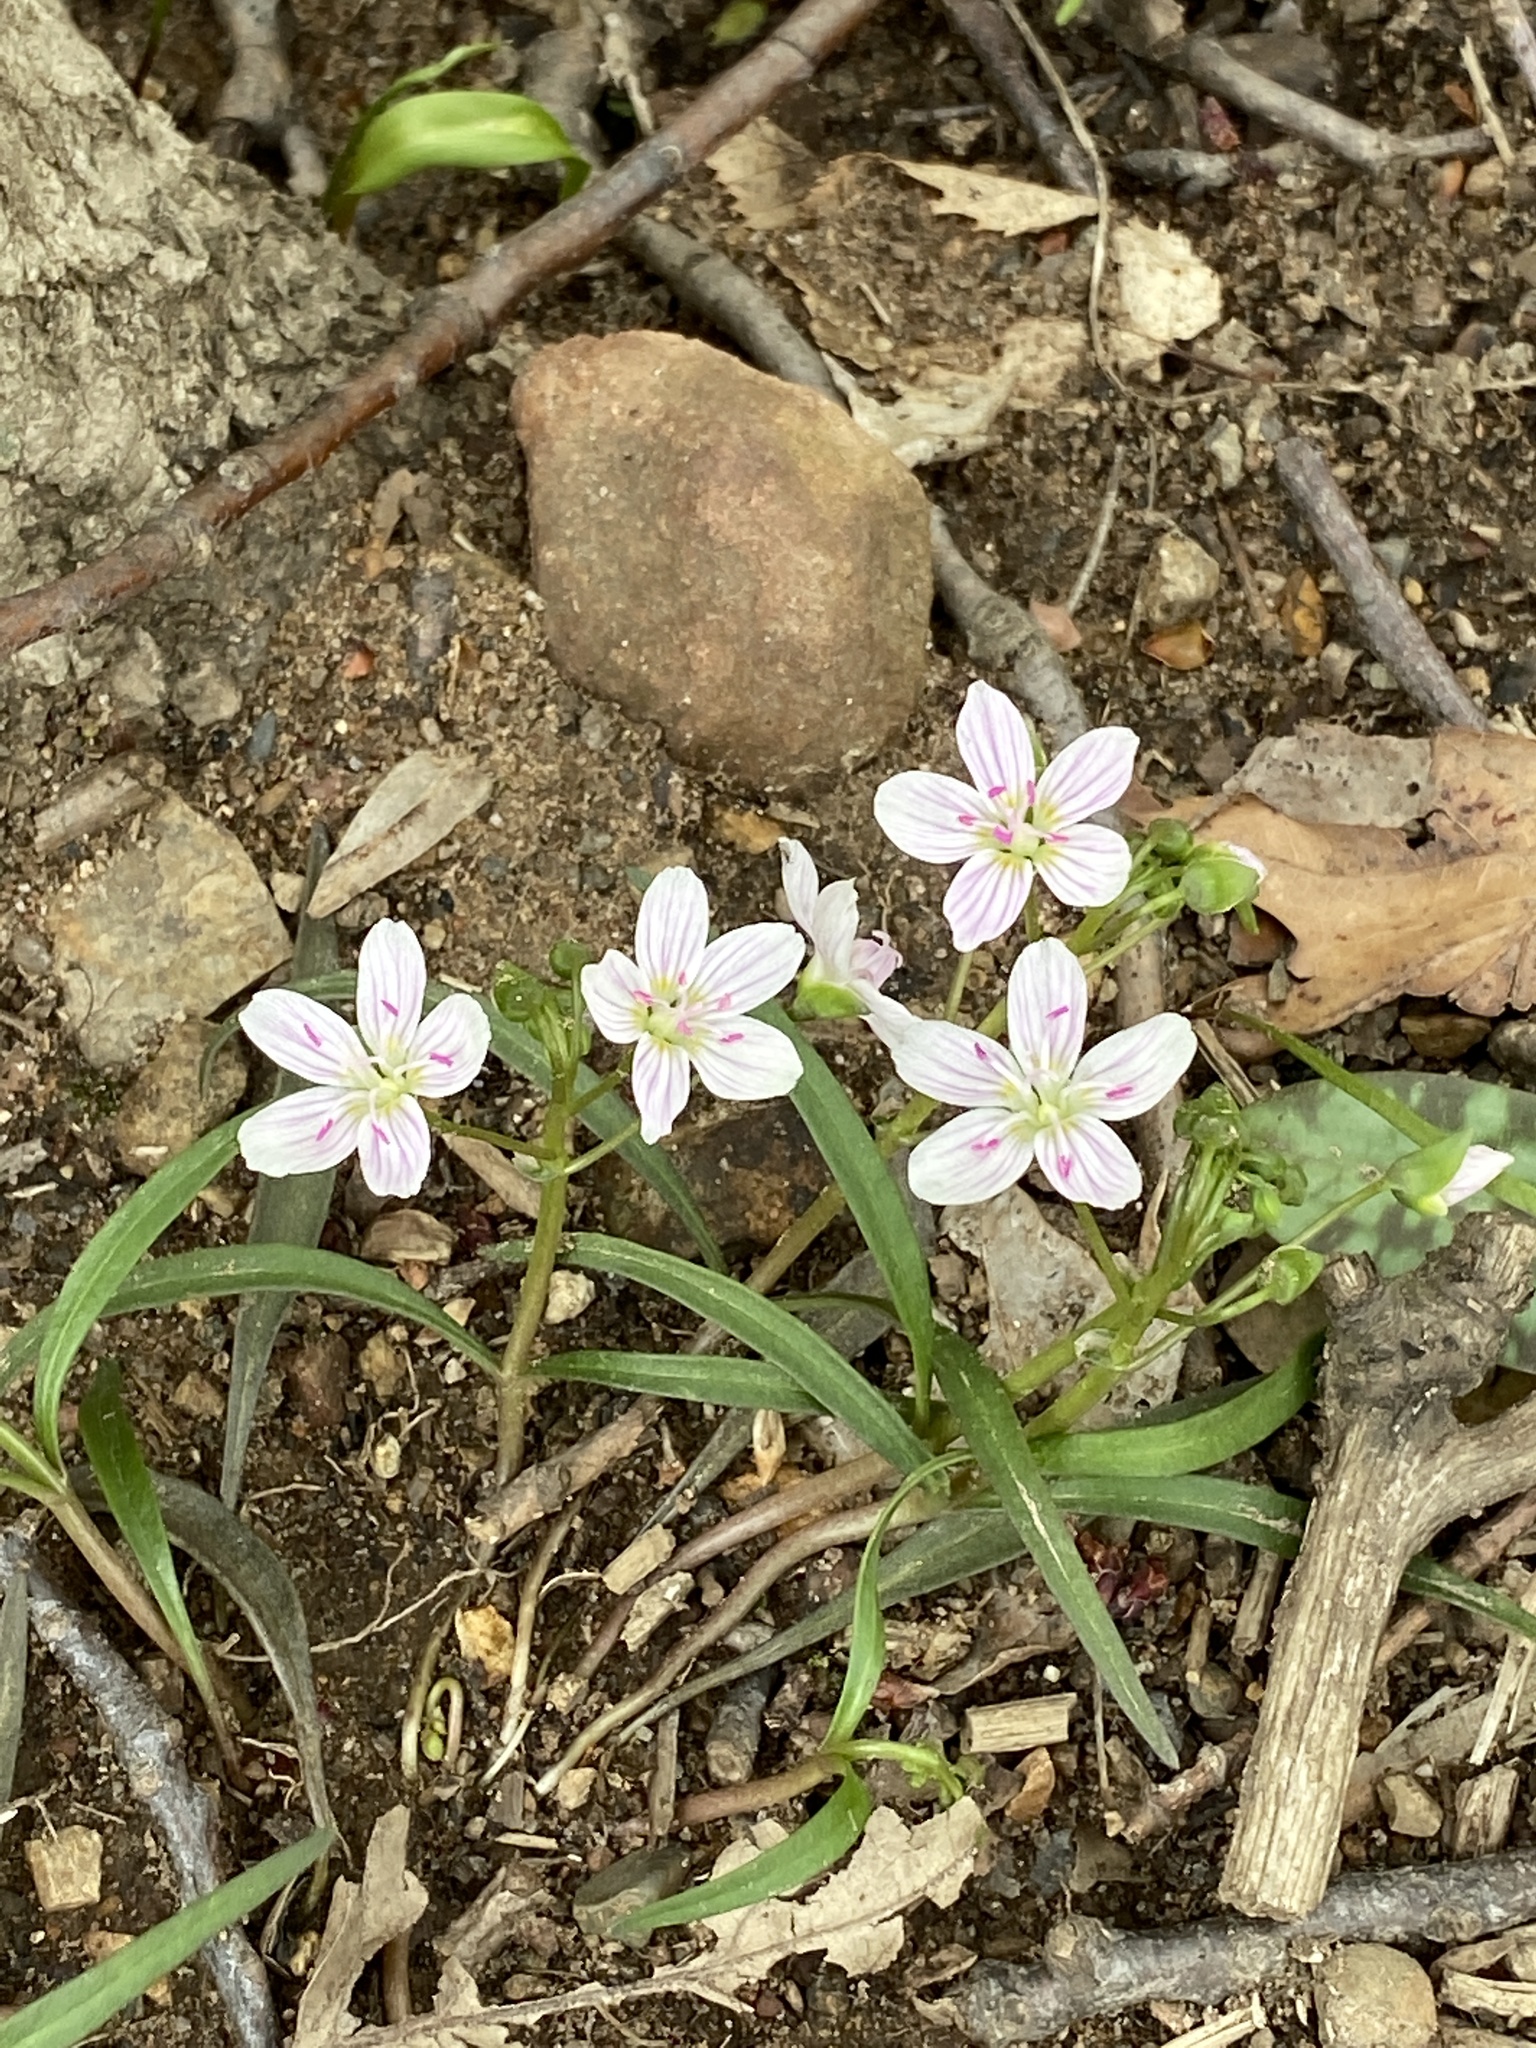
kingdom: Plantae
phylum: Tracheophyta
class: Magnoliopsida
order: Caryophyllales
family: Montiaceae
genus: Claytonia
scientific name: Claytonia virginica
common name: Virginia springbeauty
